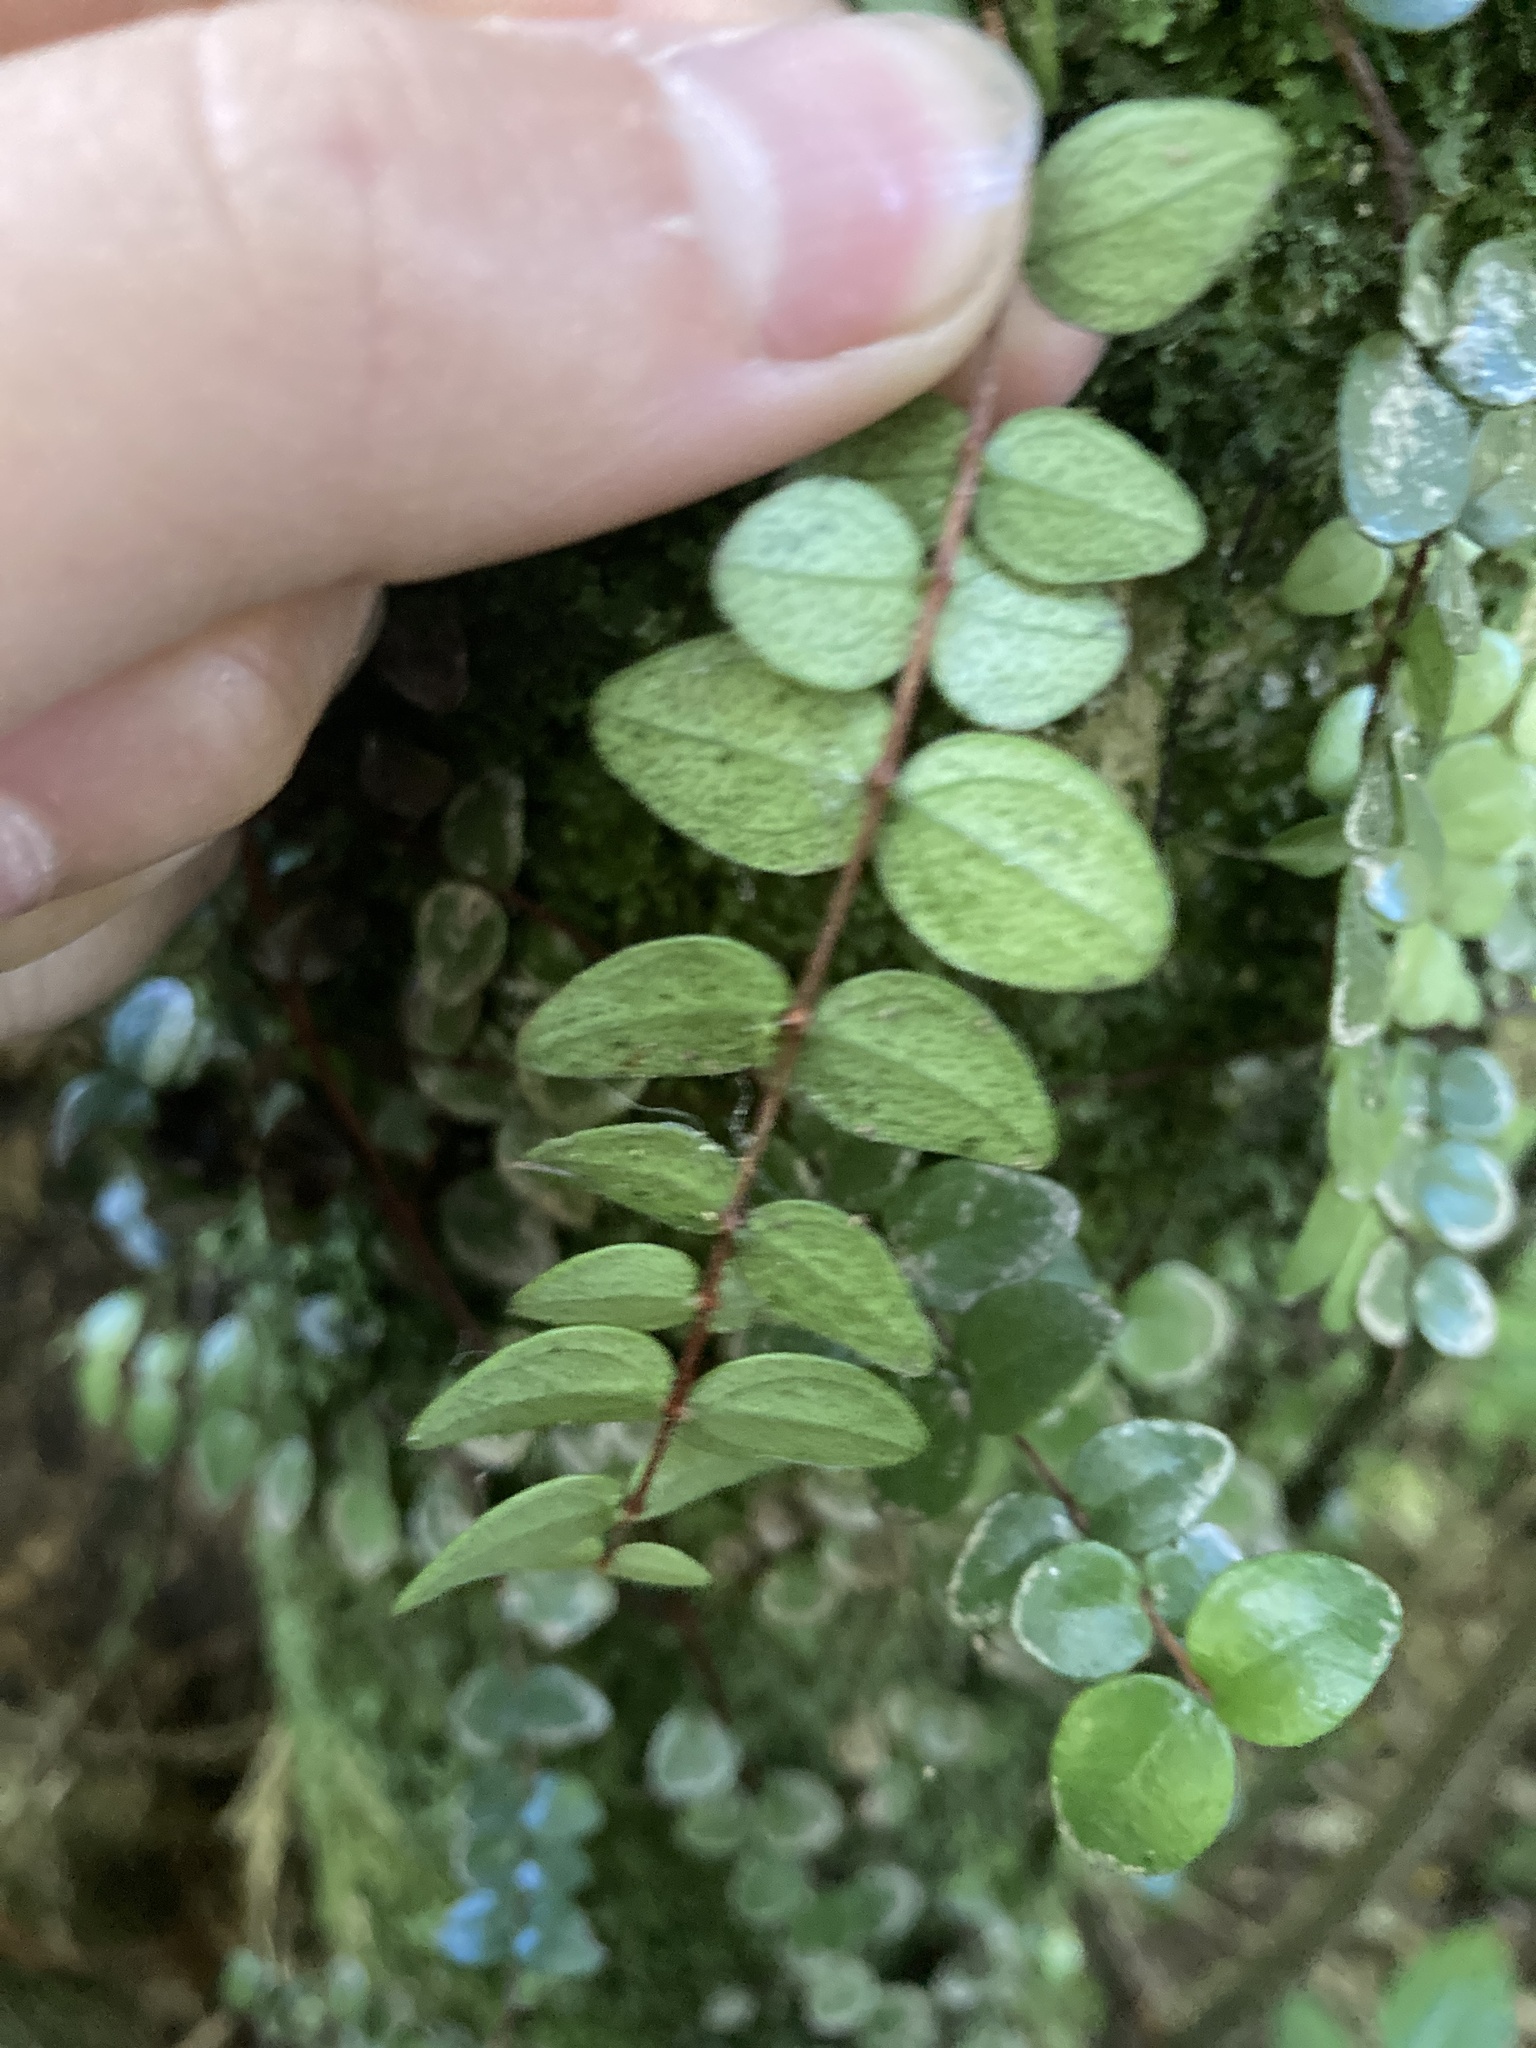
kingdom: Plantae
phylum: Tracheophyta
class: Magnoliopsida
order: Myrtales
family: Myrtaceae
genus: Metrosideros
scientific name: Metrosideros perforata
